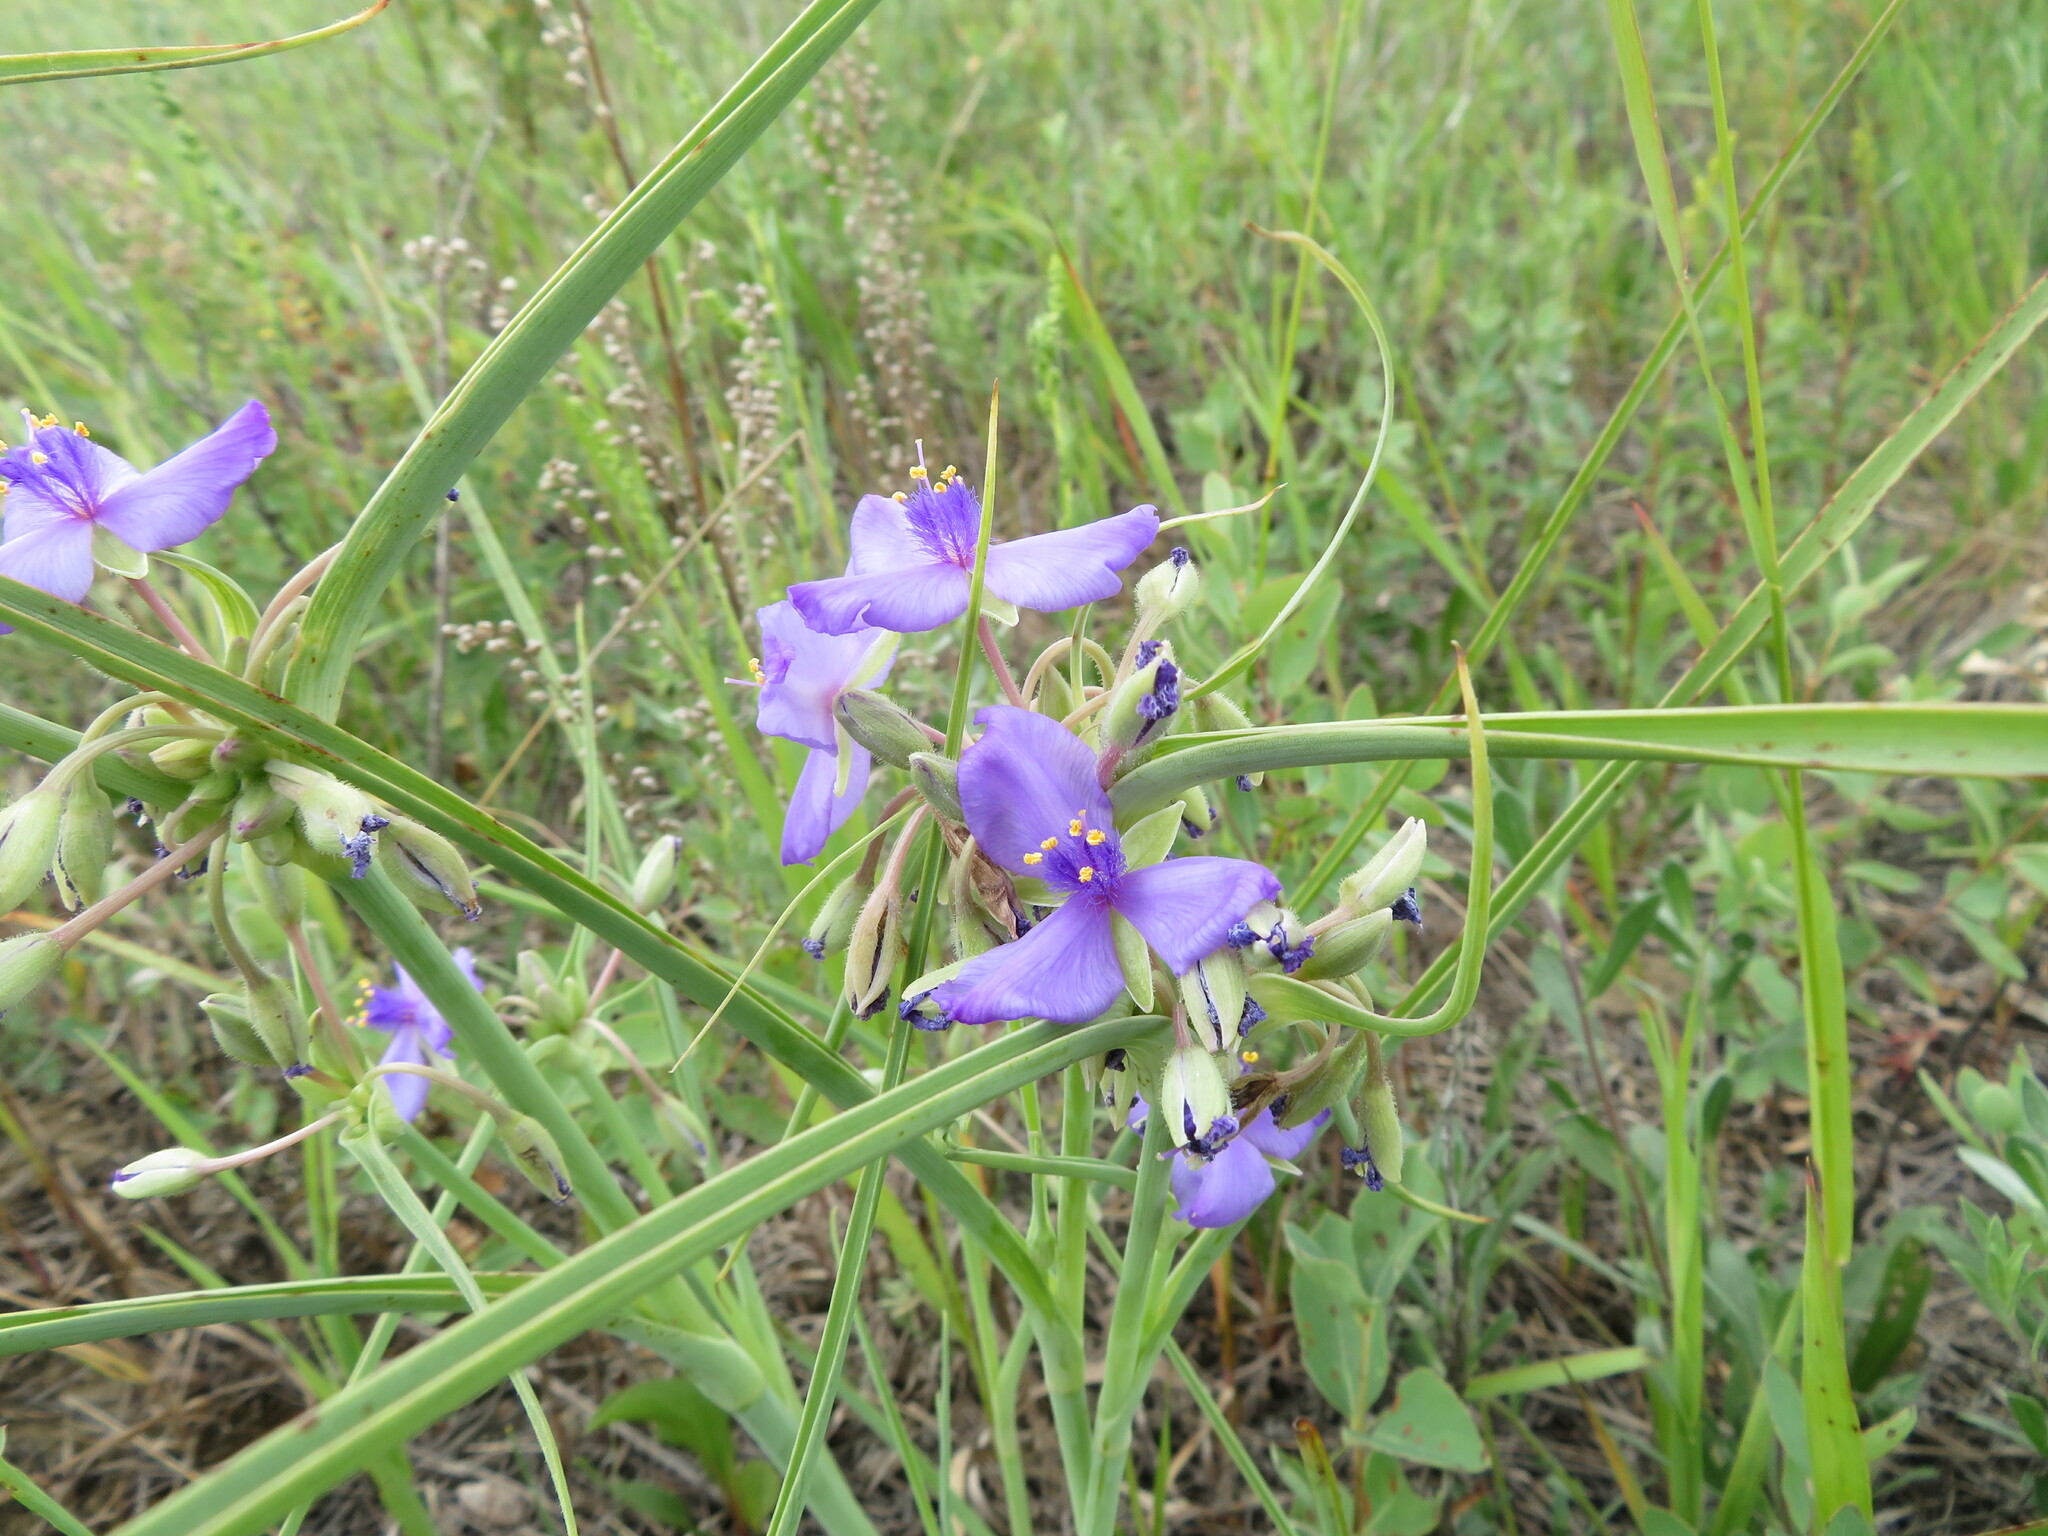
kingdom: Plantae
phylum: Tracheophyta
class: Liliopsida
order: Commelinales
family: Commelinaceae
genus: Tradescantia
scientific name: Tradescantia occidentalis
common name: Prairie spiderwort
